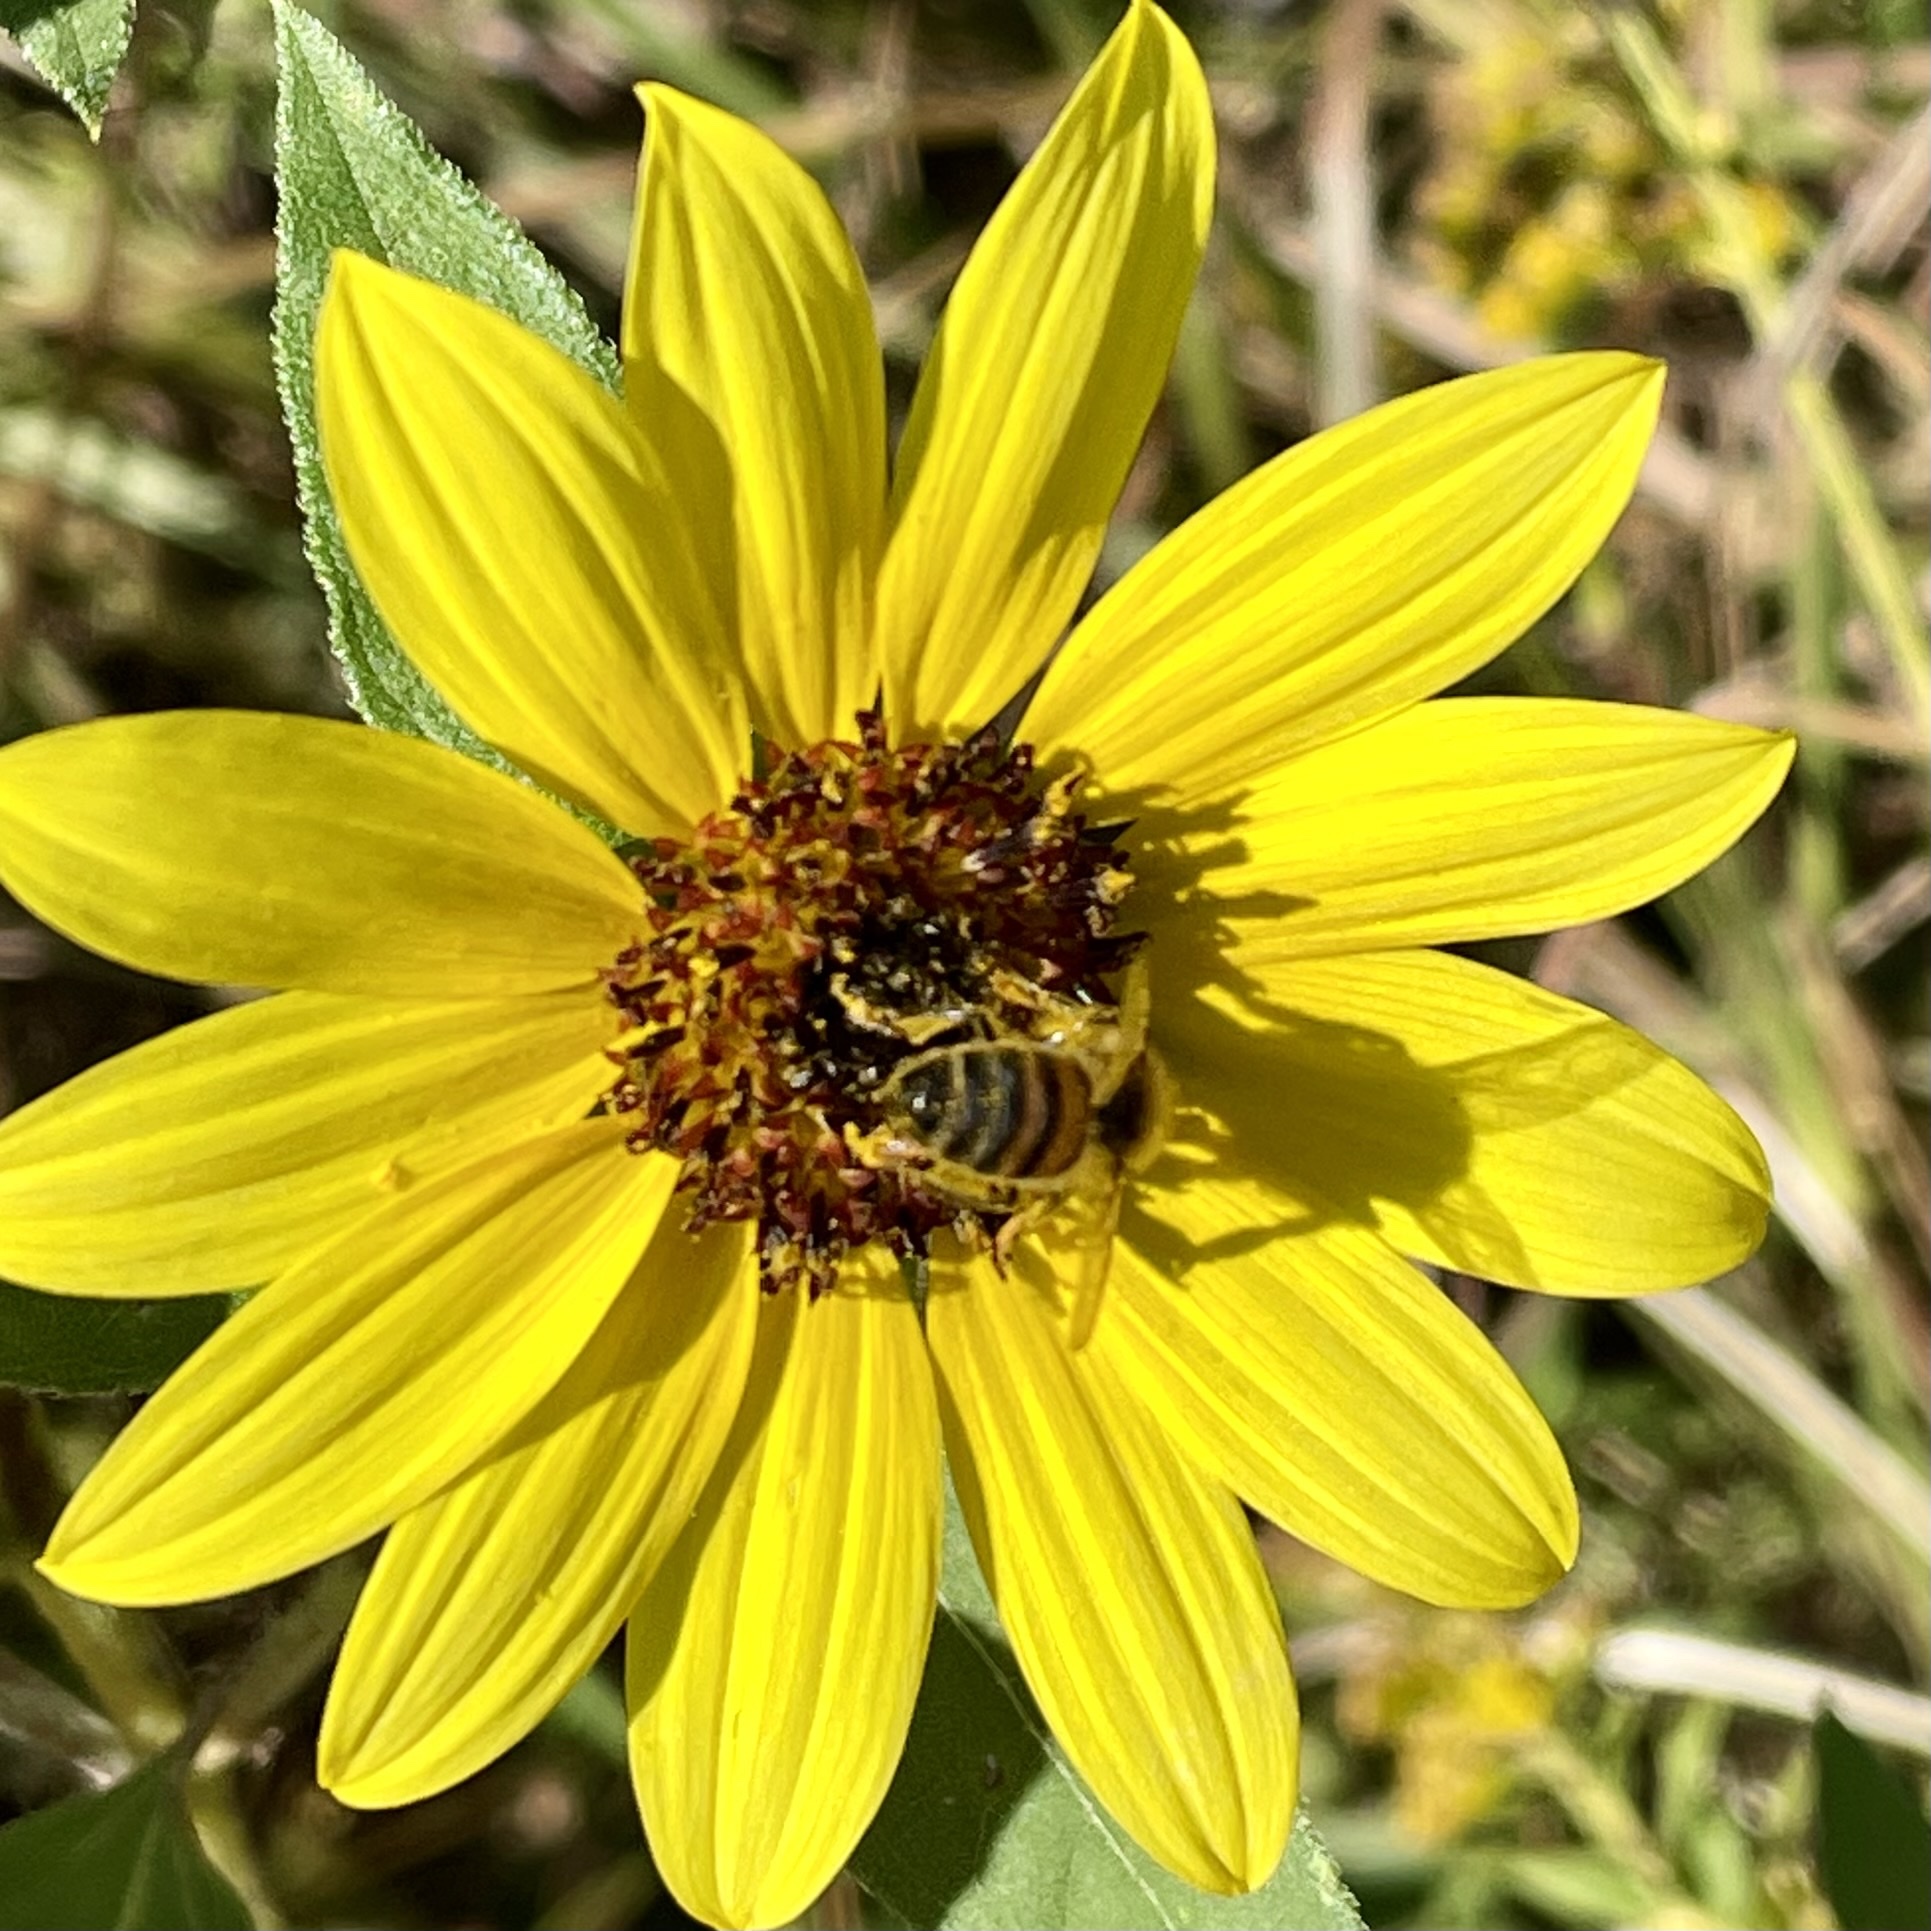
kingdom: Animalia
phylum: Arthropoda
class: Insecta
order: Hymenoptera
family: Apidae
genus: Apis
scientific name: Apis mellifera
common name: Honey bee
